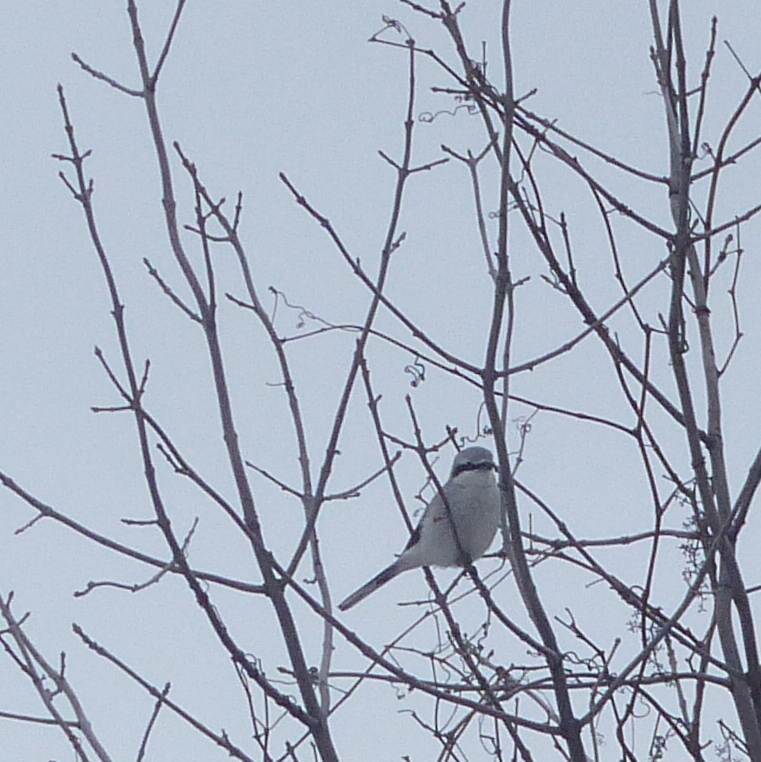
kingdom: Animalia
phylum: Chordata
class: Aves
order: Passeriformes
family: Laniidae
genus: Lanius
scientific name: Lanius borealis
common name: Northern shrike
